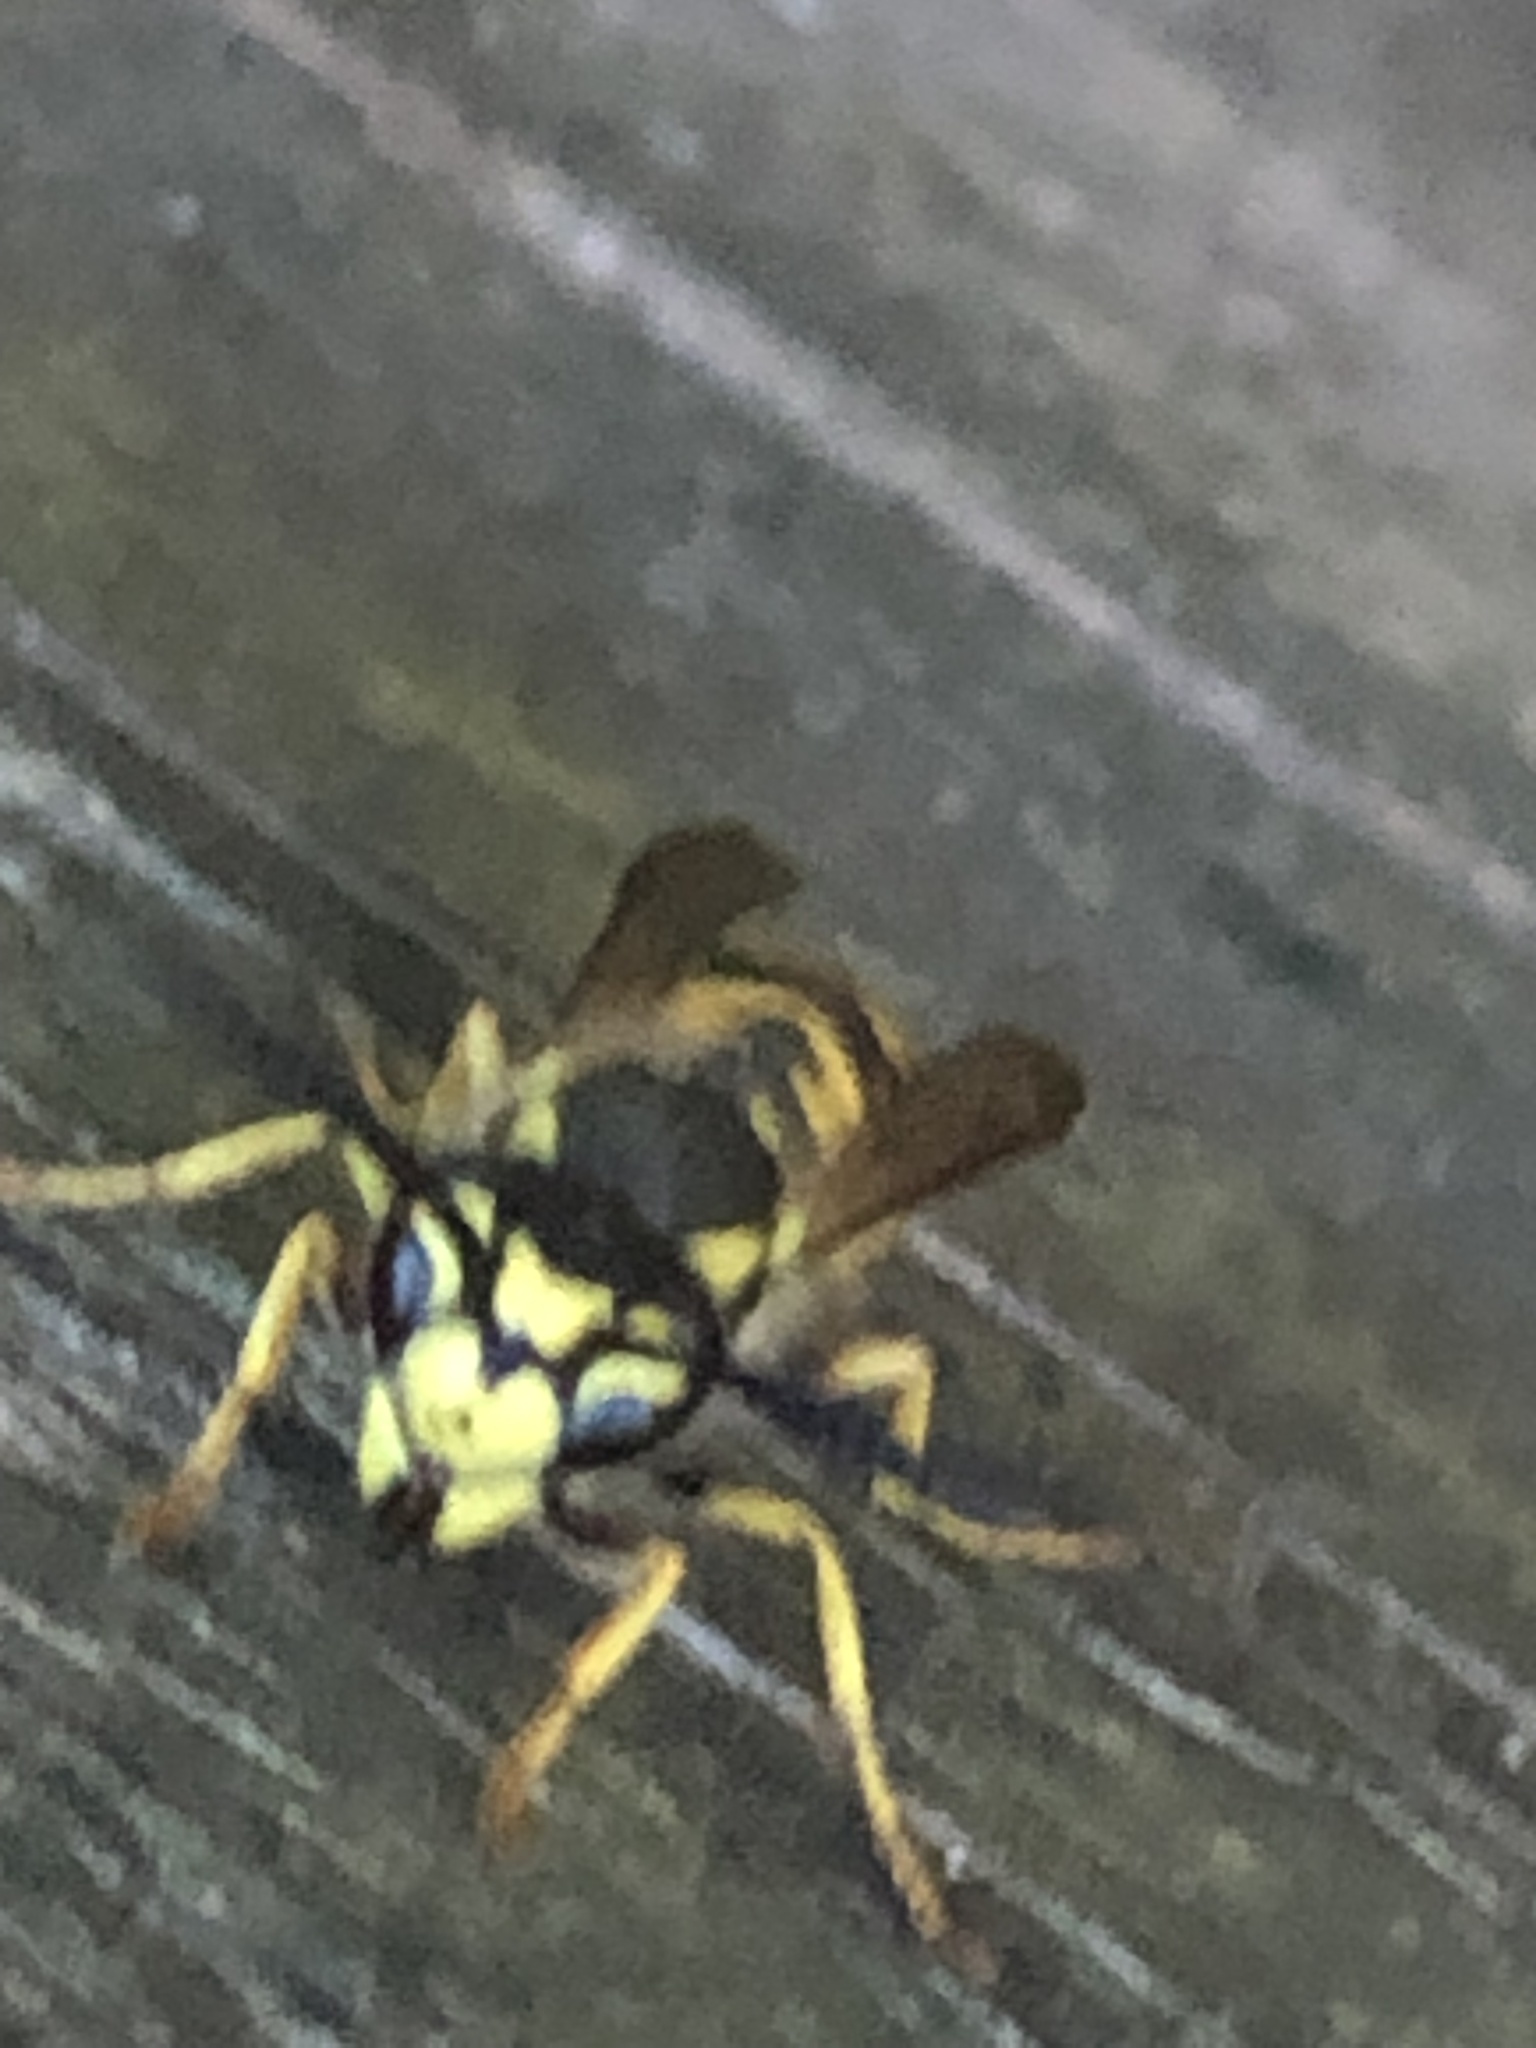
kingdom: Animalia
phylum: Arthropoda
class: Insecta
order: Hymenoptera
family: Vespidae
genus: Vespula
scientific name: Vespula germanica
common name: German wasp
